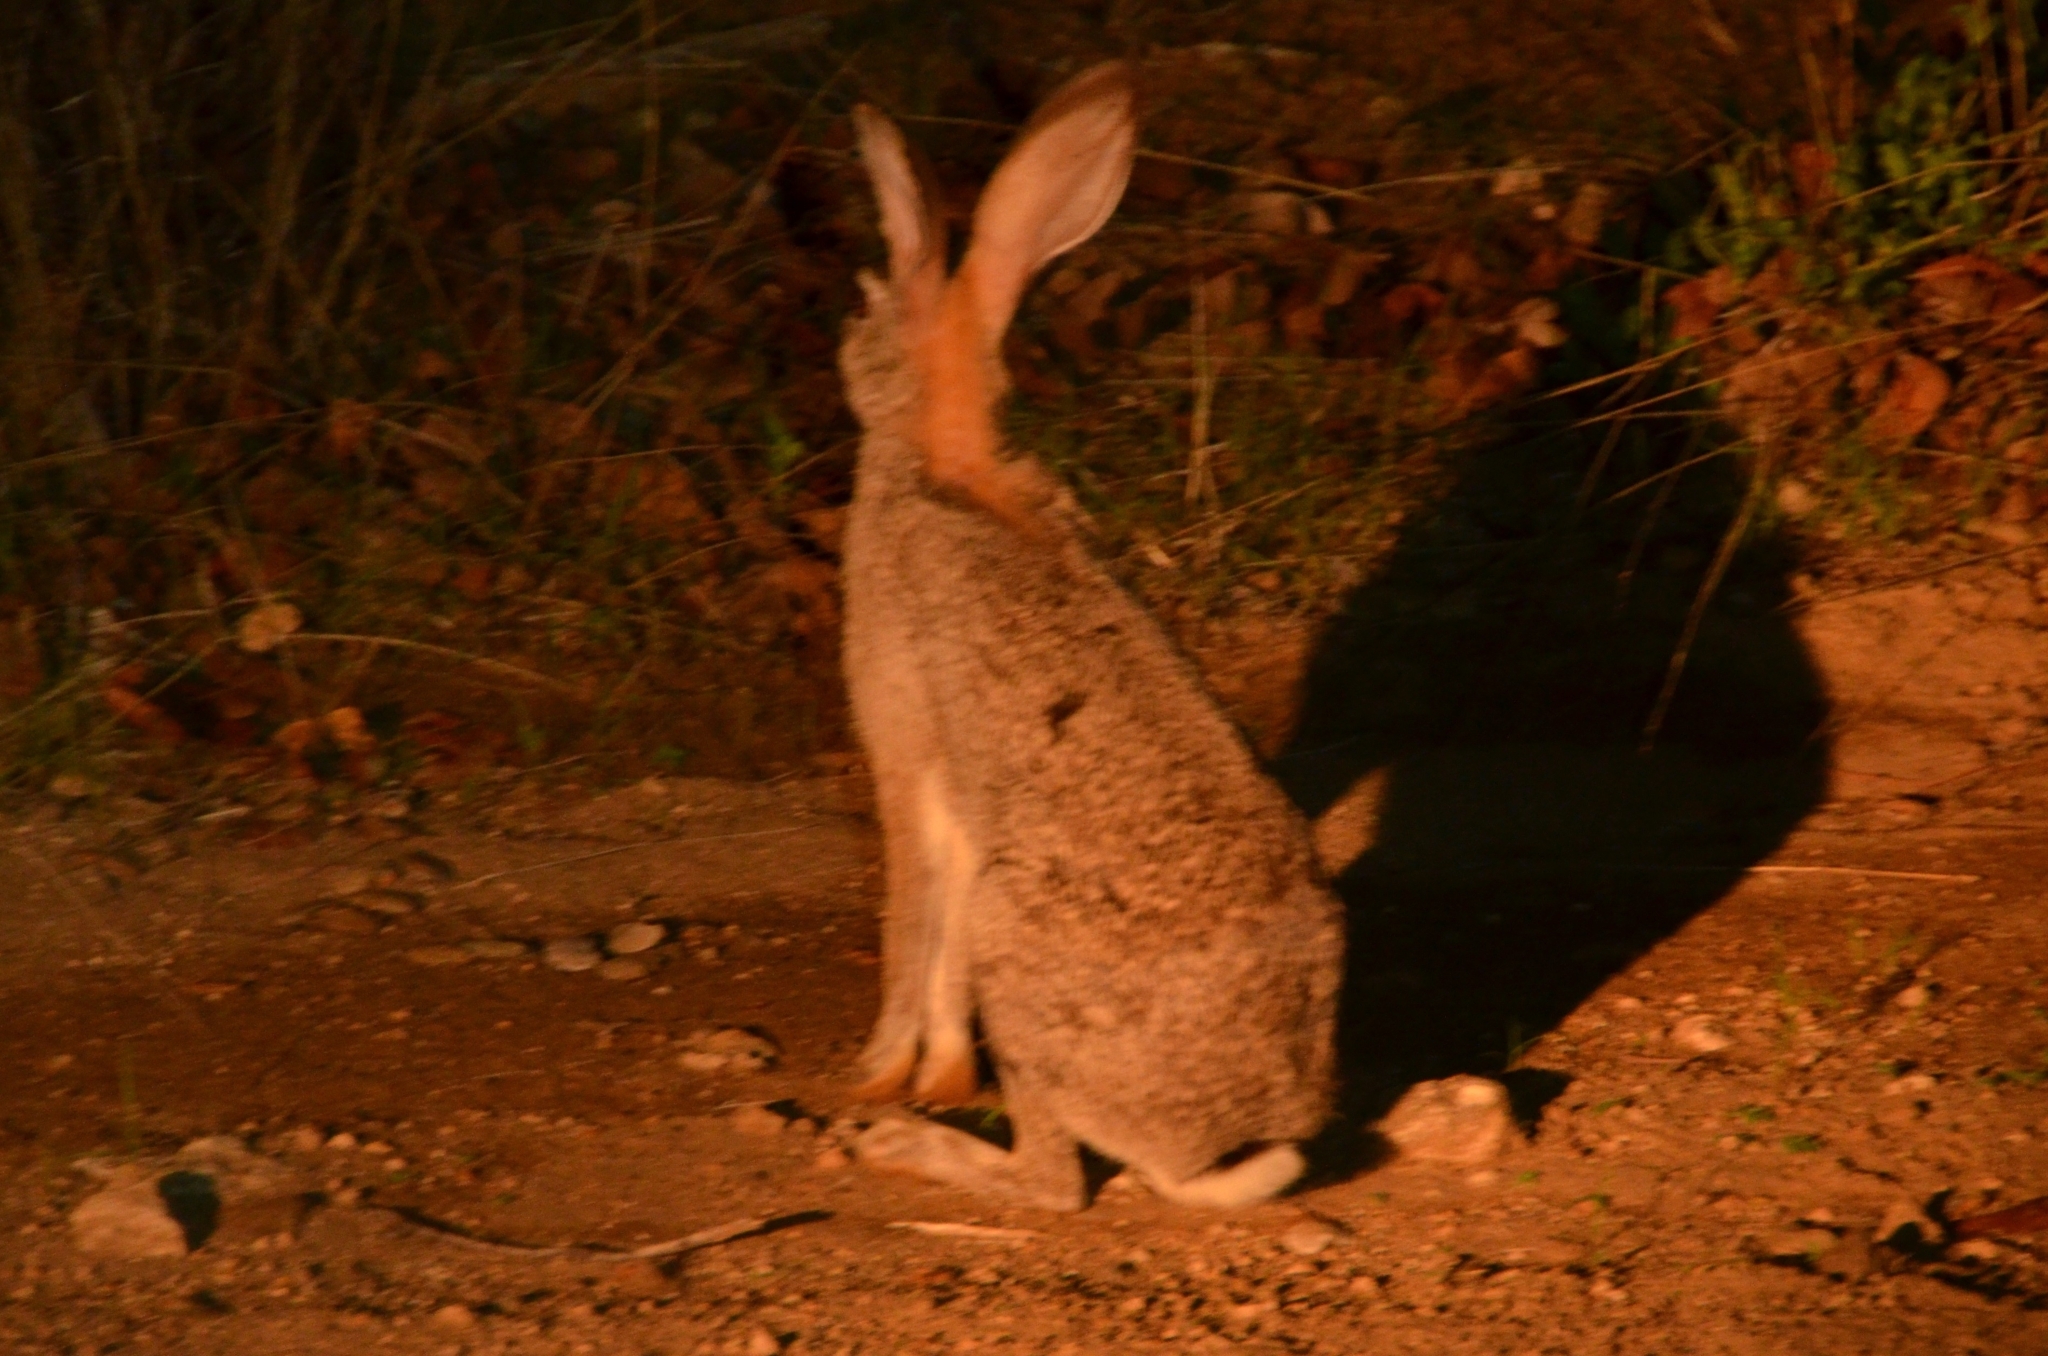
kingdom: Animalia
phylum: Chordata
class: Mammalia
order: Lagomorpha
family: Leporidae
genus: Lepus
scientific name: Lepus saxatilis
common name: Scrub hare
